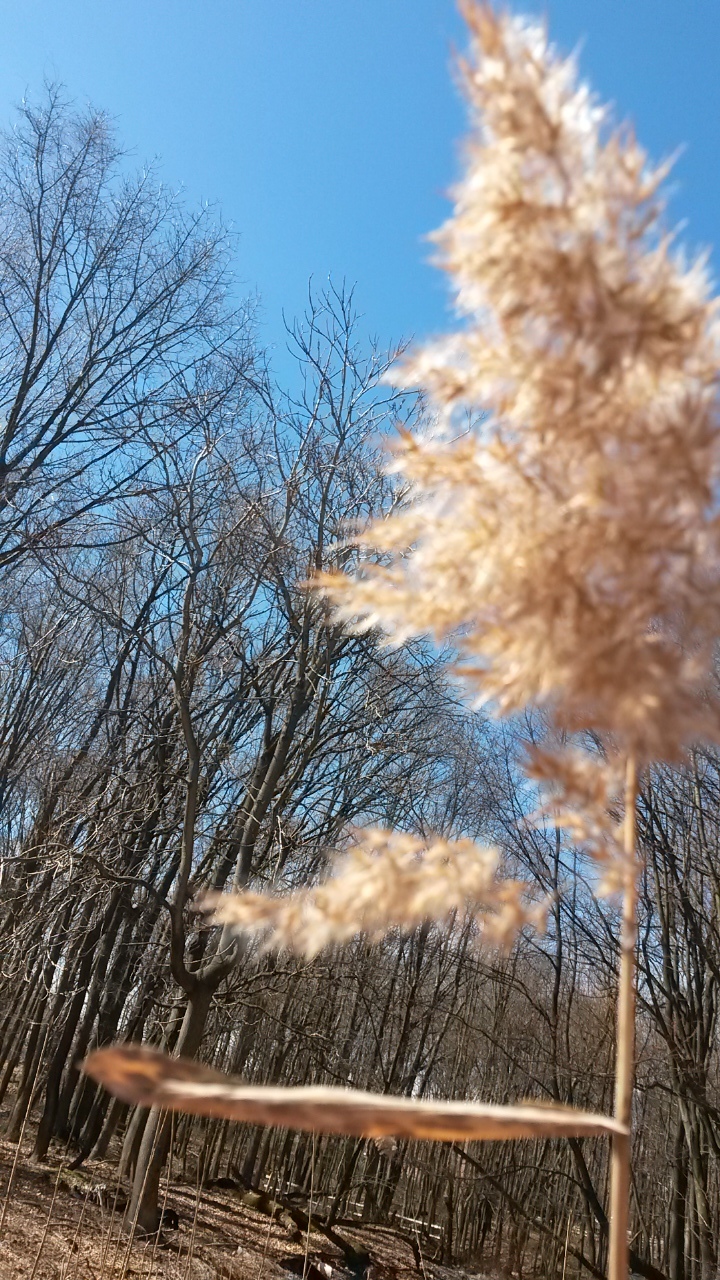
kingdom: Plantae
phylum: Tracheophyta
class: Liliopsida
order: Poales
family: Poaceae
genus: Phragmites
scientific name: Phragmites australis
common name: Common reed
